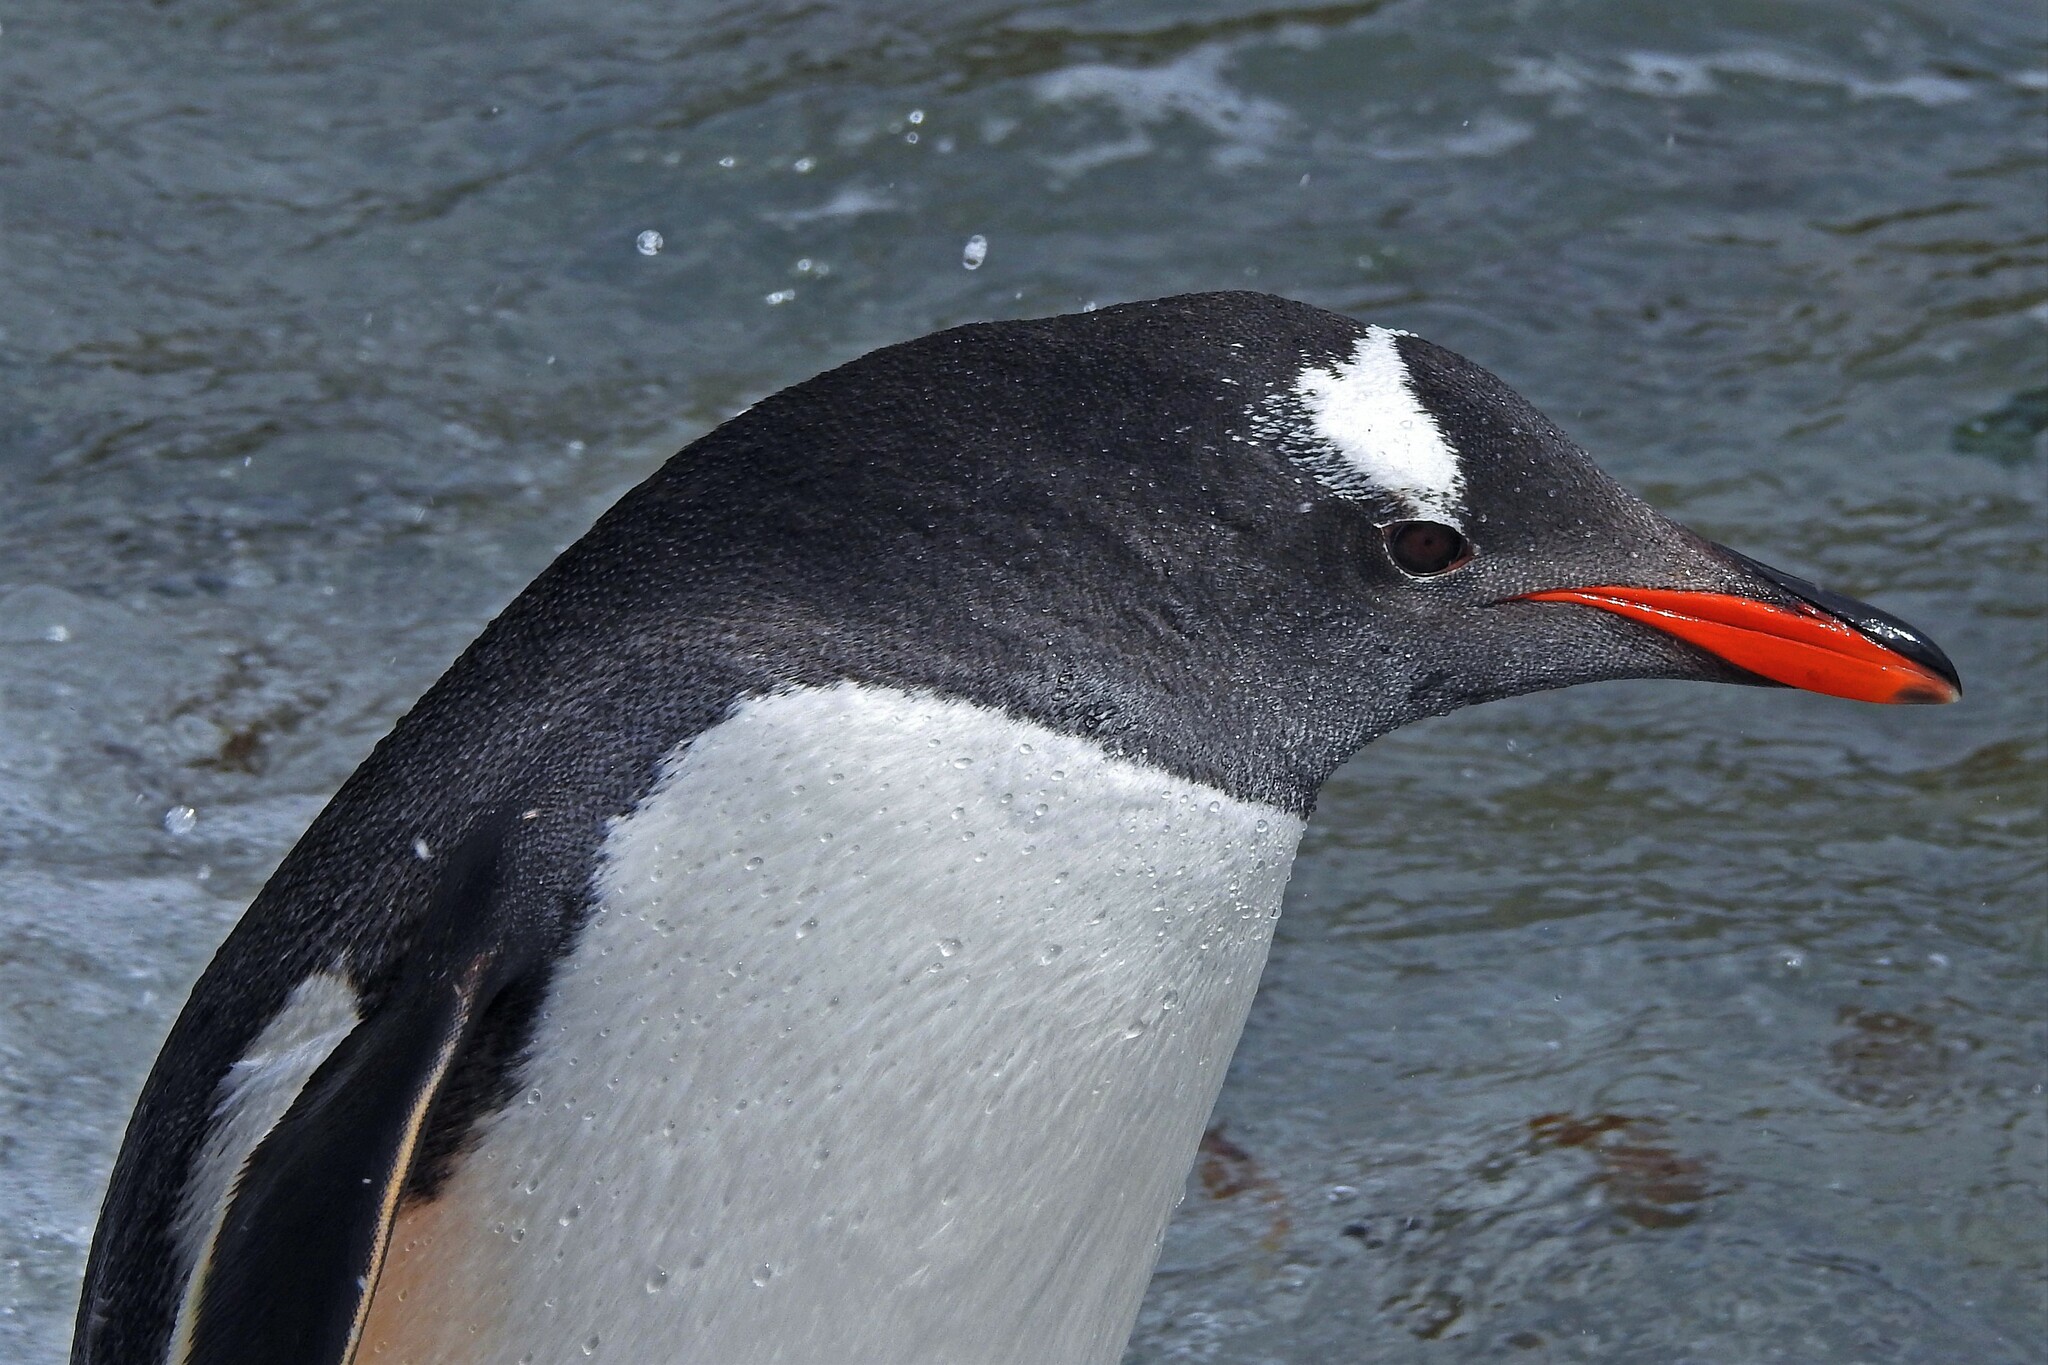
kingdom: Animalia
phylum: Chordata
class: Aves
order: Sphenisciformes
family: Spheniscidae
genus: Pygoscelis
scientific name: Pygoscelis papua
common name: Gentoo penguin
